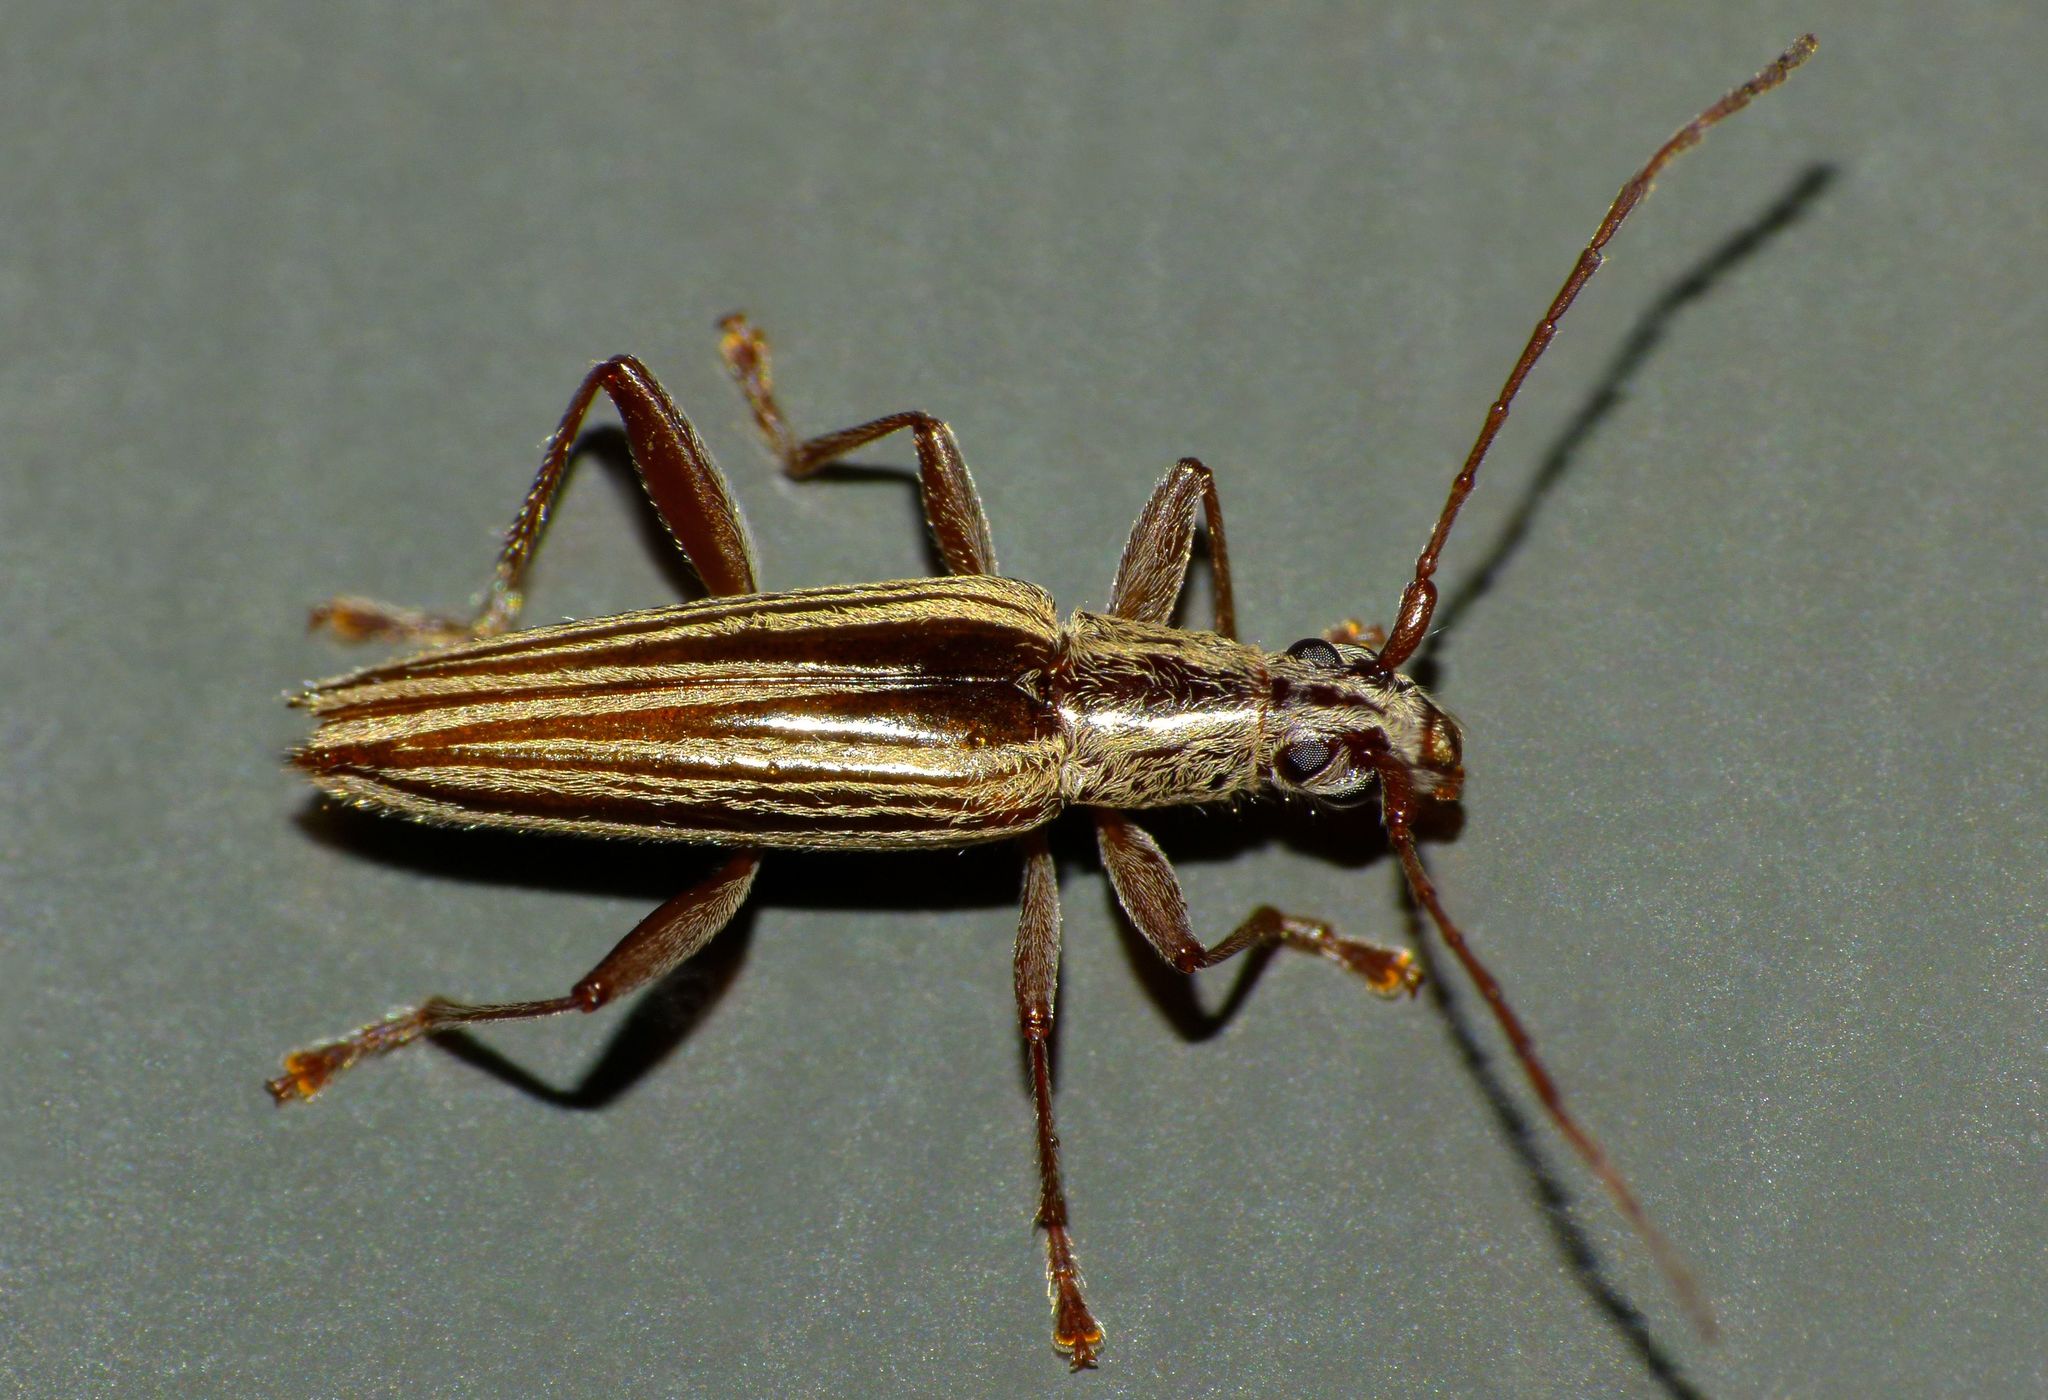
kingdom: Animalia
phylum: Arthropoda
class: Insecta
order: Coleoptera
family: Cerambycidae
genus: Coptomma
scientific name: Coptomma sulcatum
